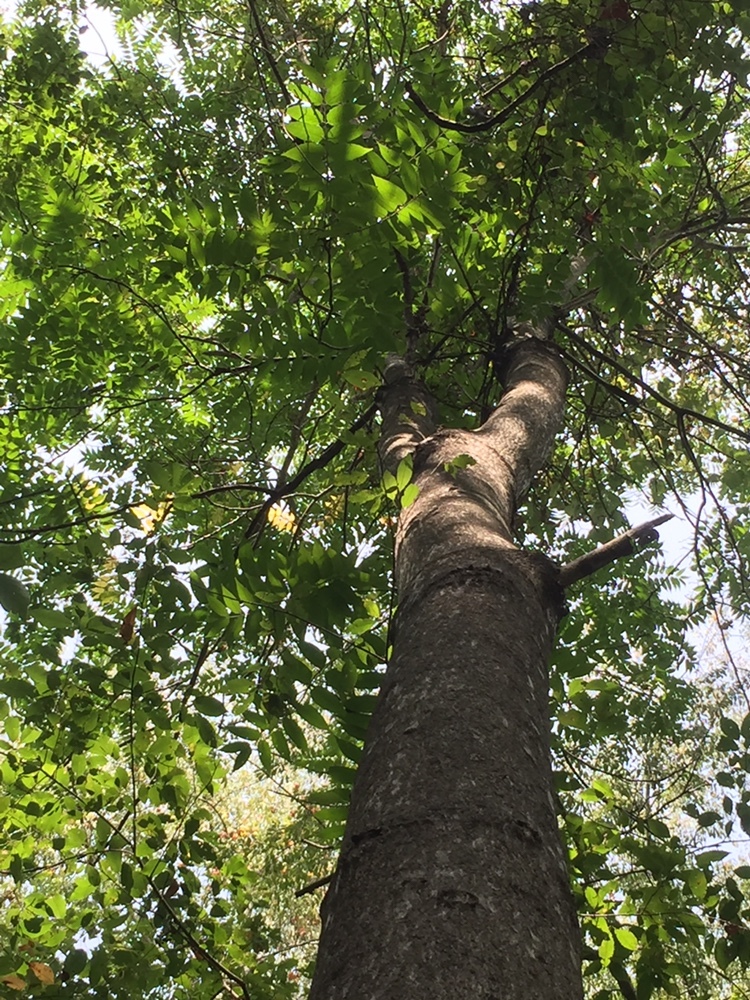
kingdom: Plantae
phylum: Tracheophyta
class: Magnoliopsida
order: Sapindales
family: Simaroubaceae
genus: Ailanthus
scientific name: Ailanthus altissima
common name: Tree-of-heaven
